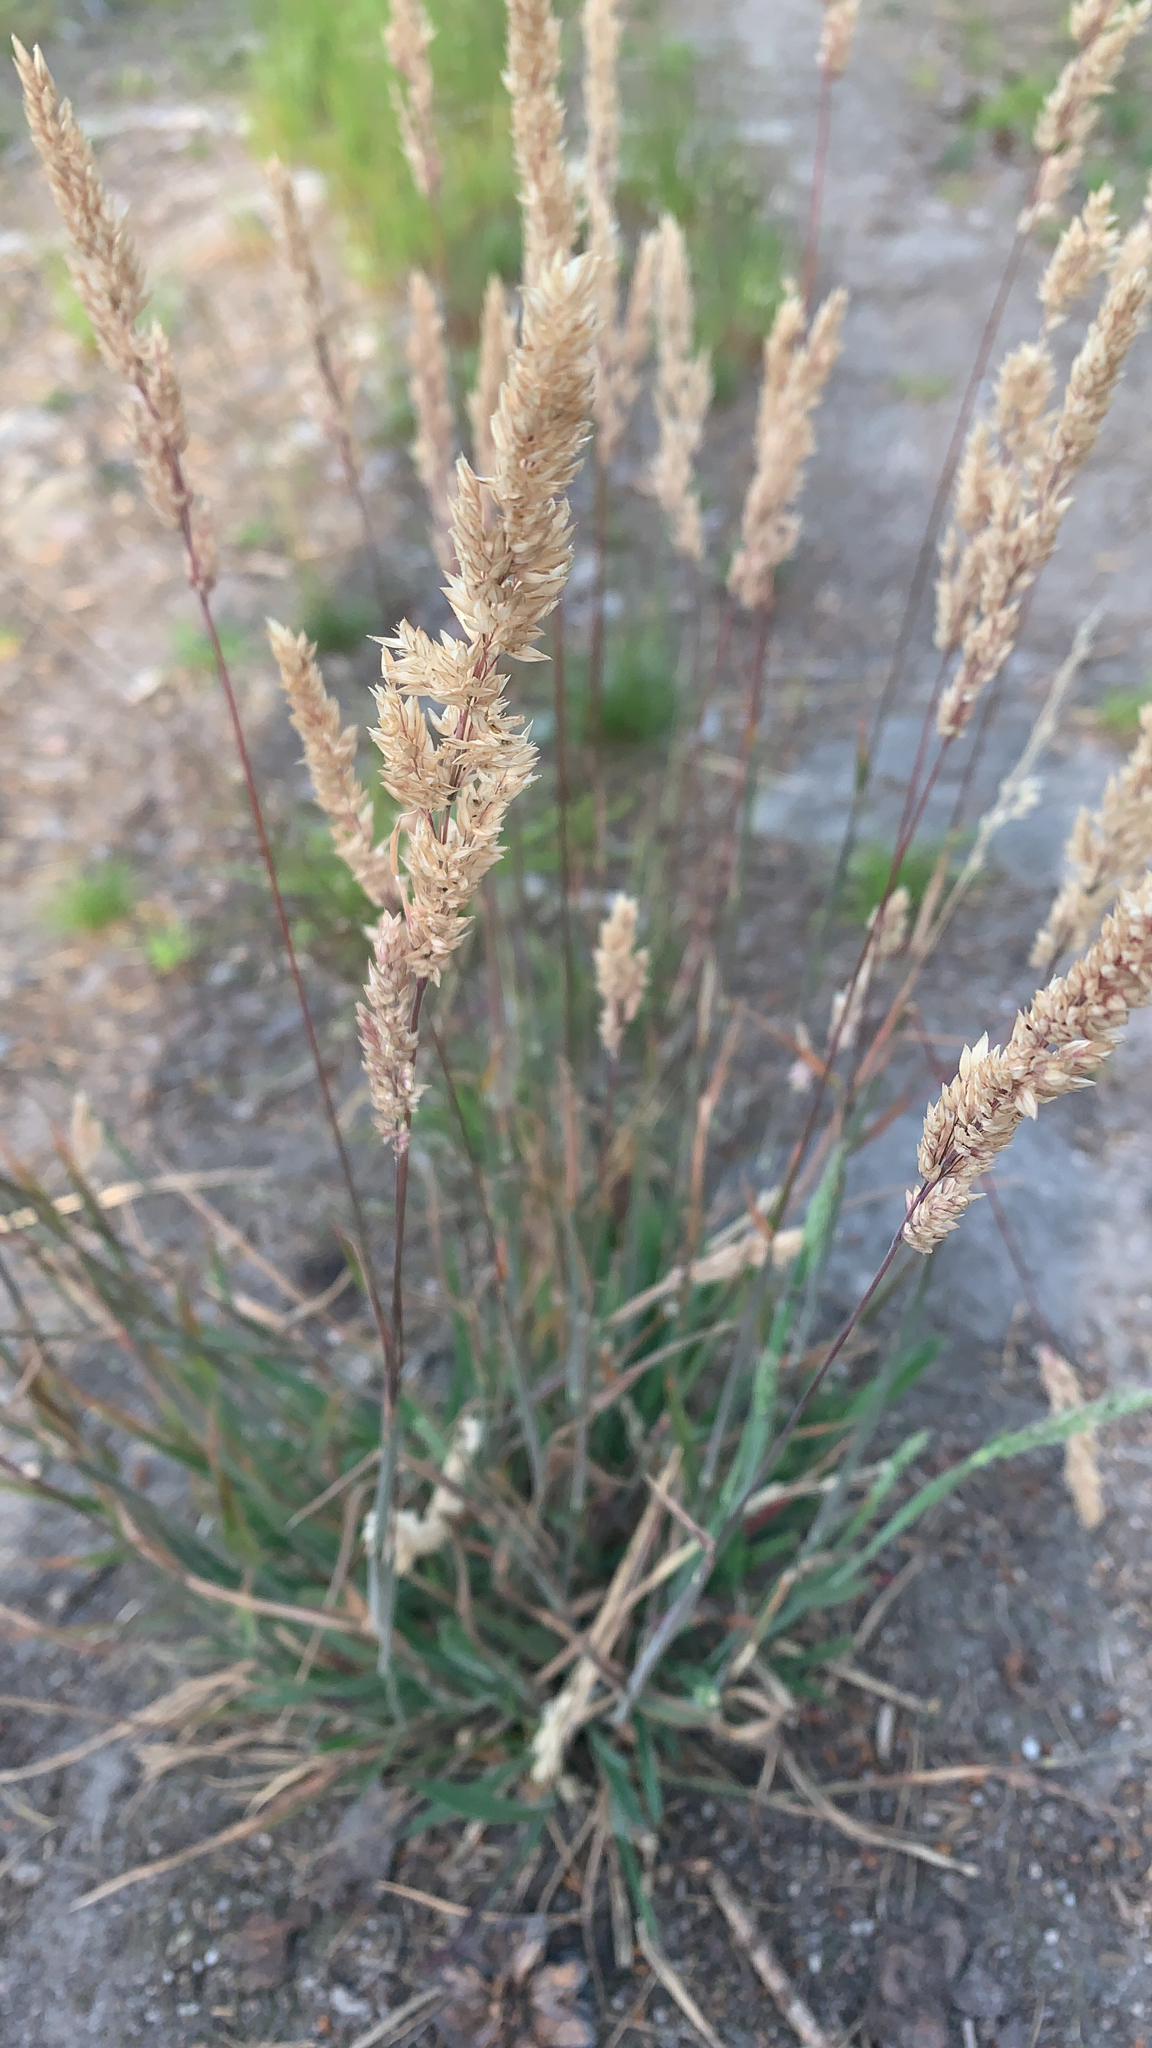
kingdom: Plantae
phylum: Tracheophyta
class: Liliopsida
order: Poales
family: Poaceae
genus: Holcus
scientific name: Holcus lanatus
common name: Yorkshire-fog
